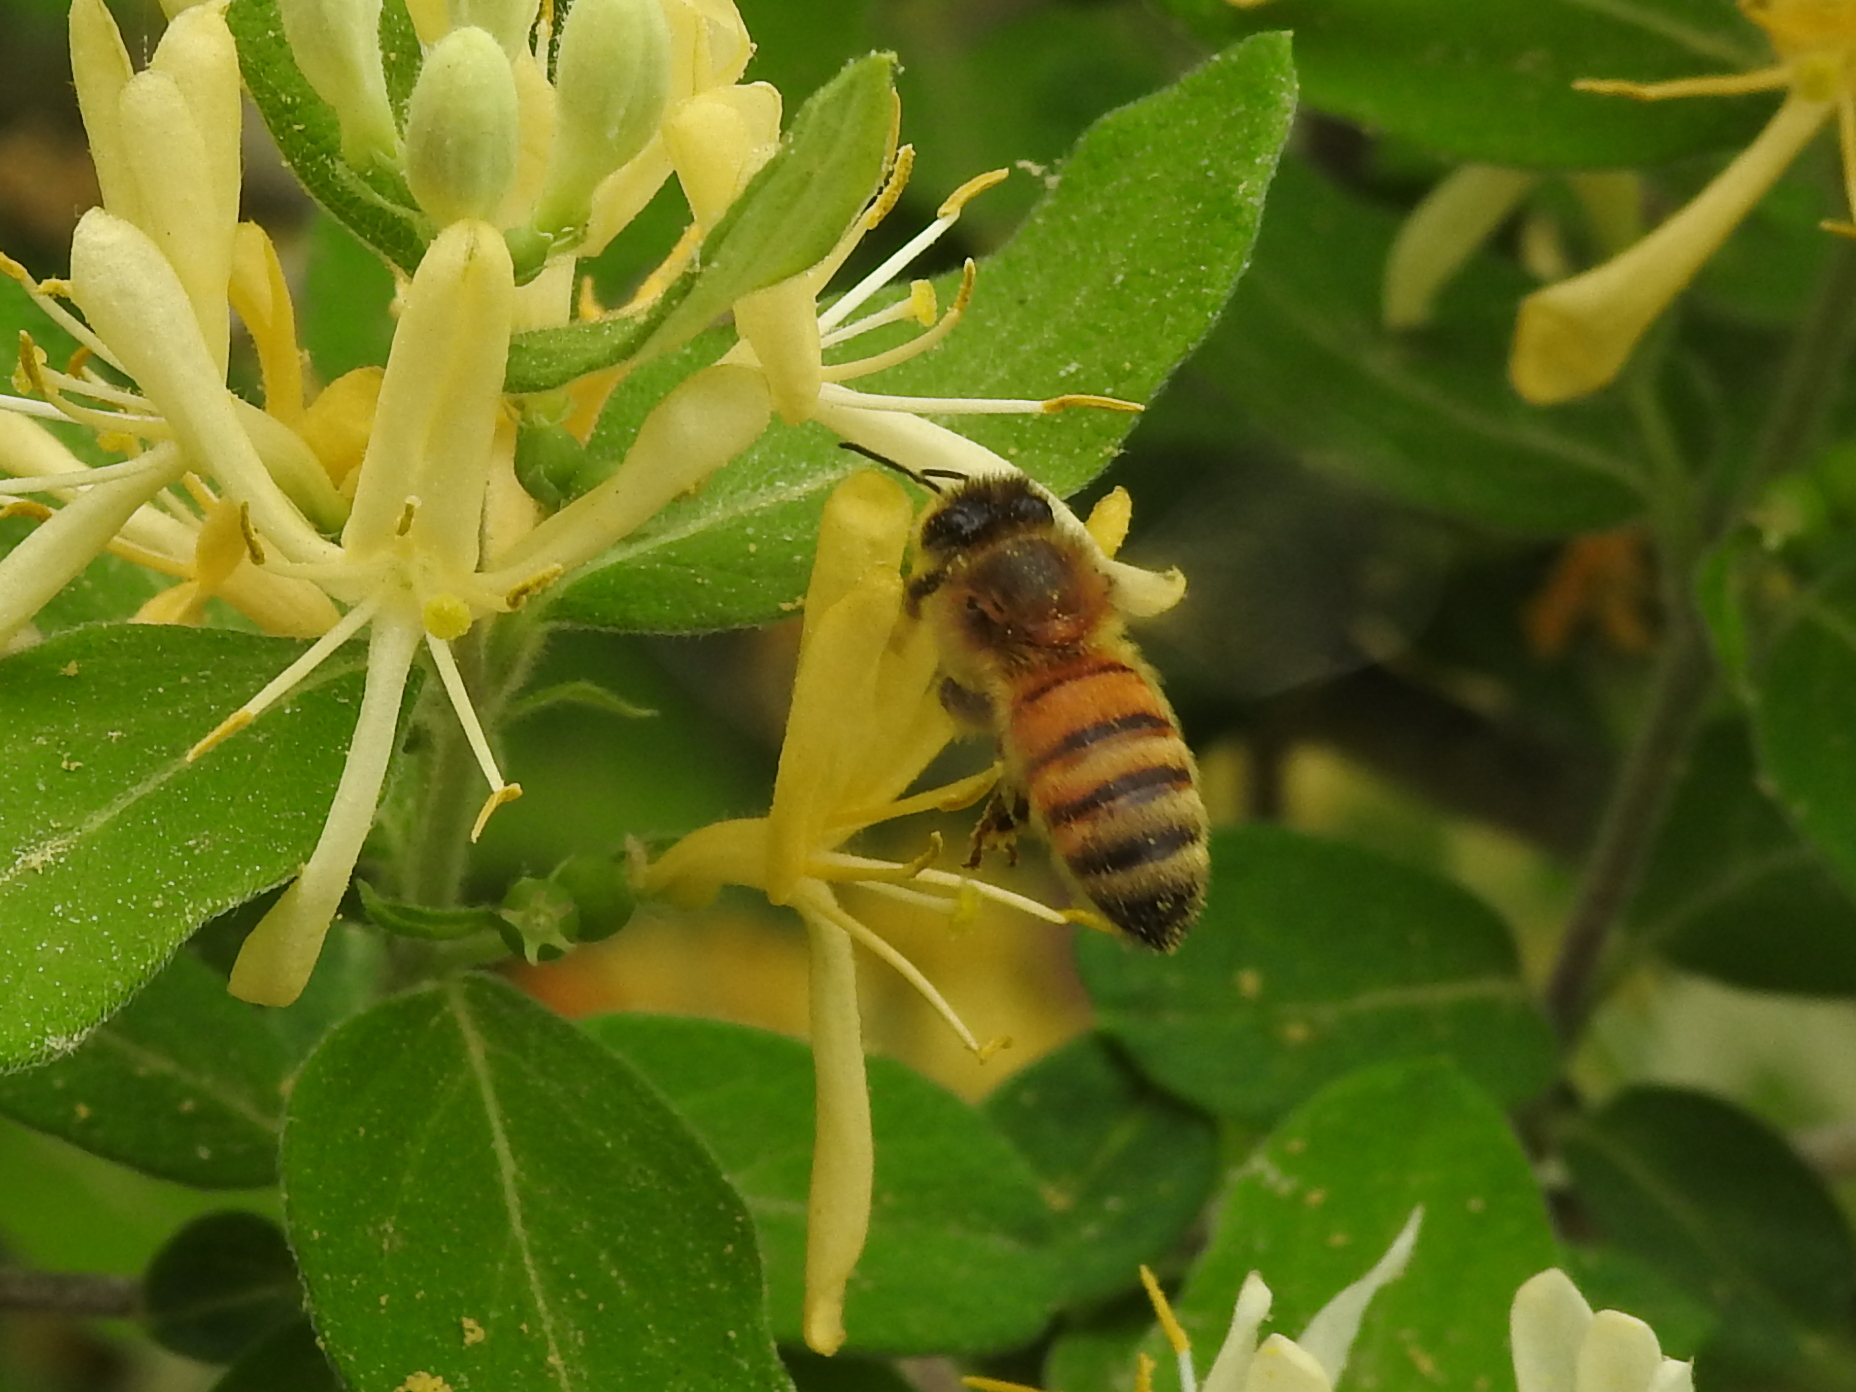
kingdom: Animalia
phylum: Arthropoda
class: Insecta
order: Hymenoptera
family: Apidae
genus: Apis
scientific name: Apis mellifera
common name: Honey bee
